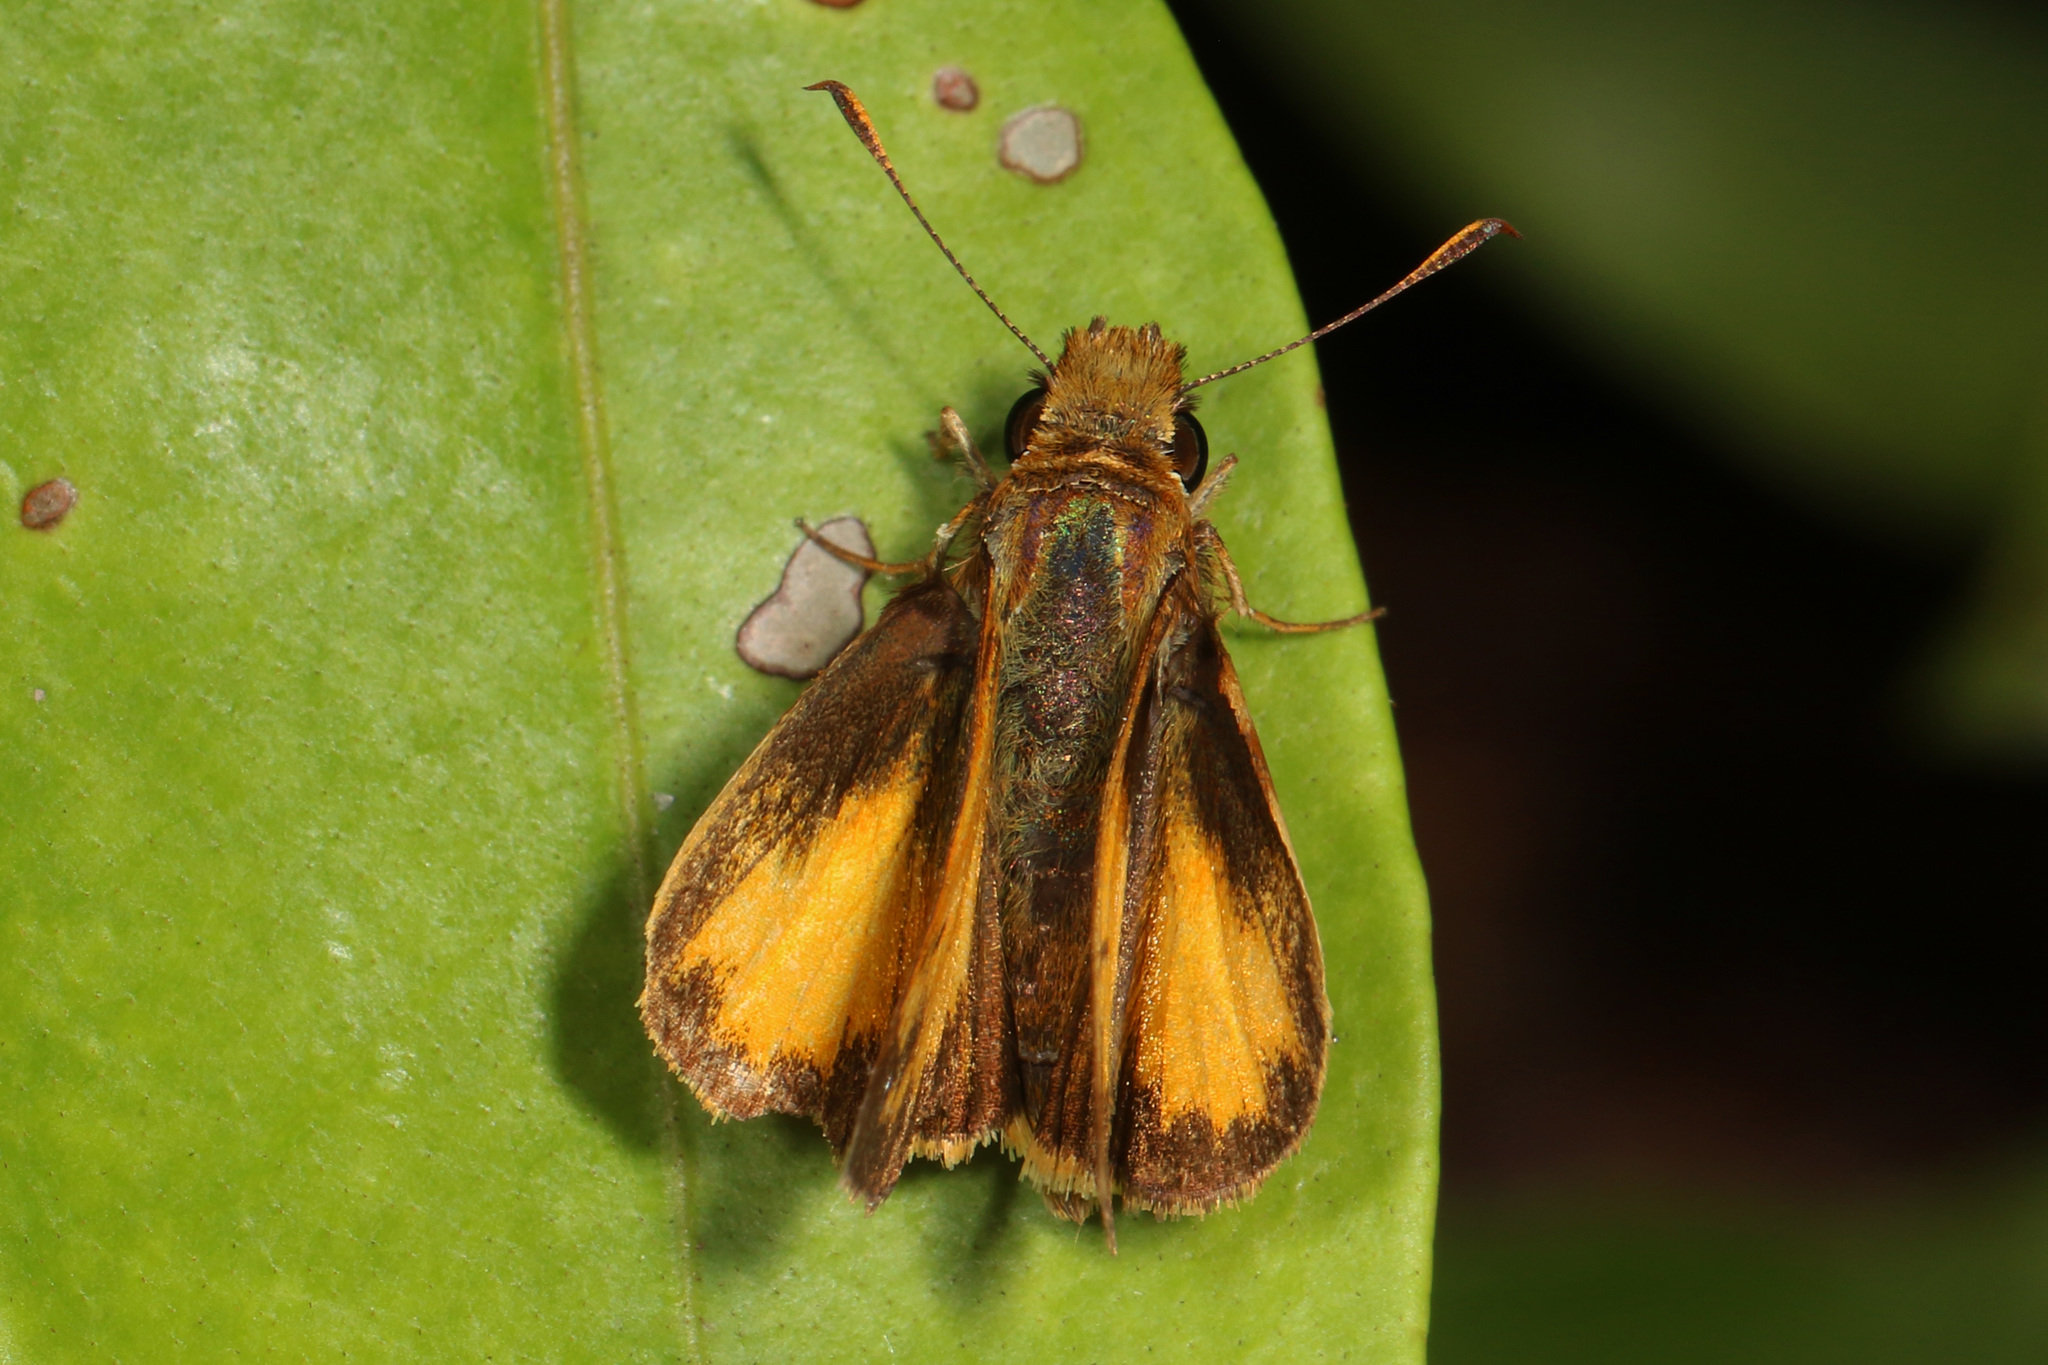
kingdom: Animalia
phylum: Arthropoda
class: Insecta
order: Lepidoptera
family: Hesperiidae
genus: Lon
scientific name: Lon zabulon
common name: Zabulon skipper
